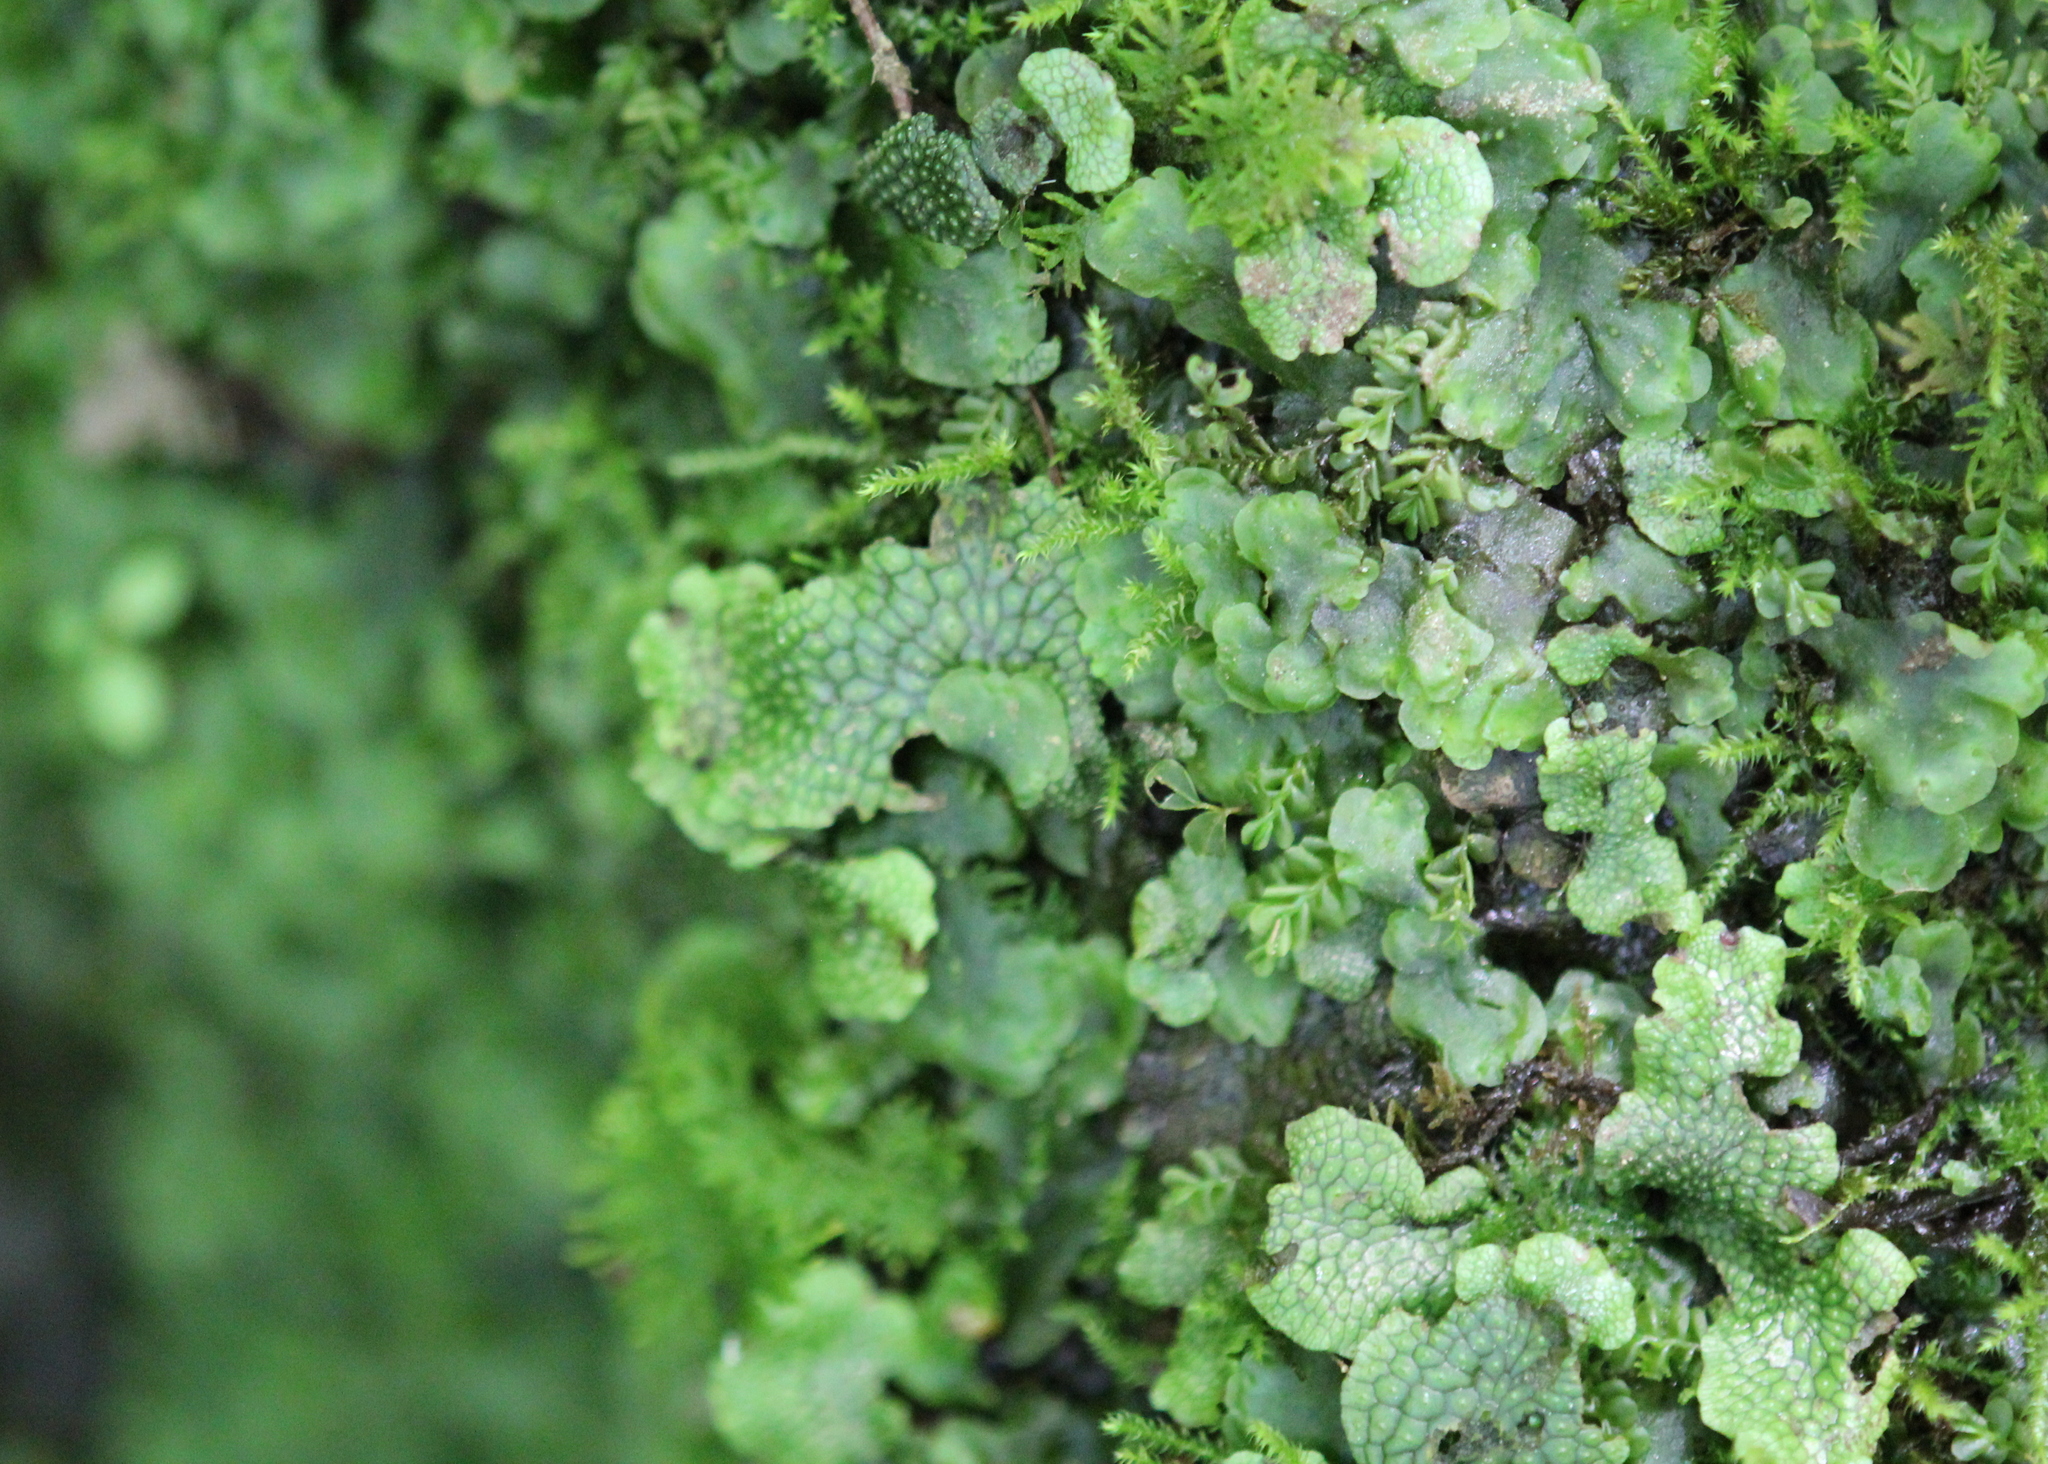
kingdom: Plantae
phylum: Marchantiophyta
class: Marchantiopsida
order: Marchantiales
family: Conocephalaceae
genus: Conocephalum
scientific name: Conocephalum salebrosum
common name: Cat-tongue liverwort
